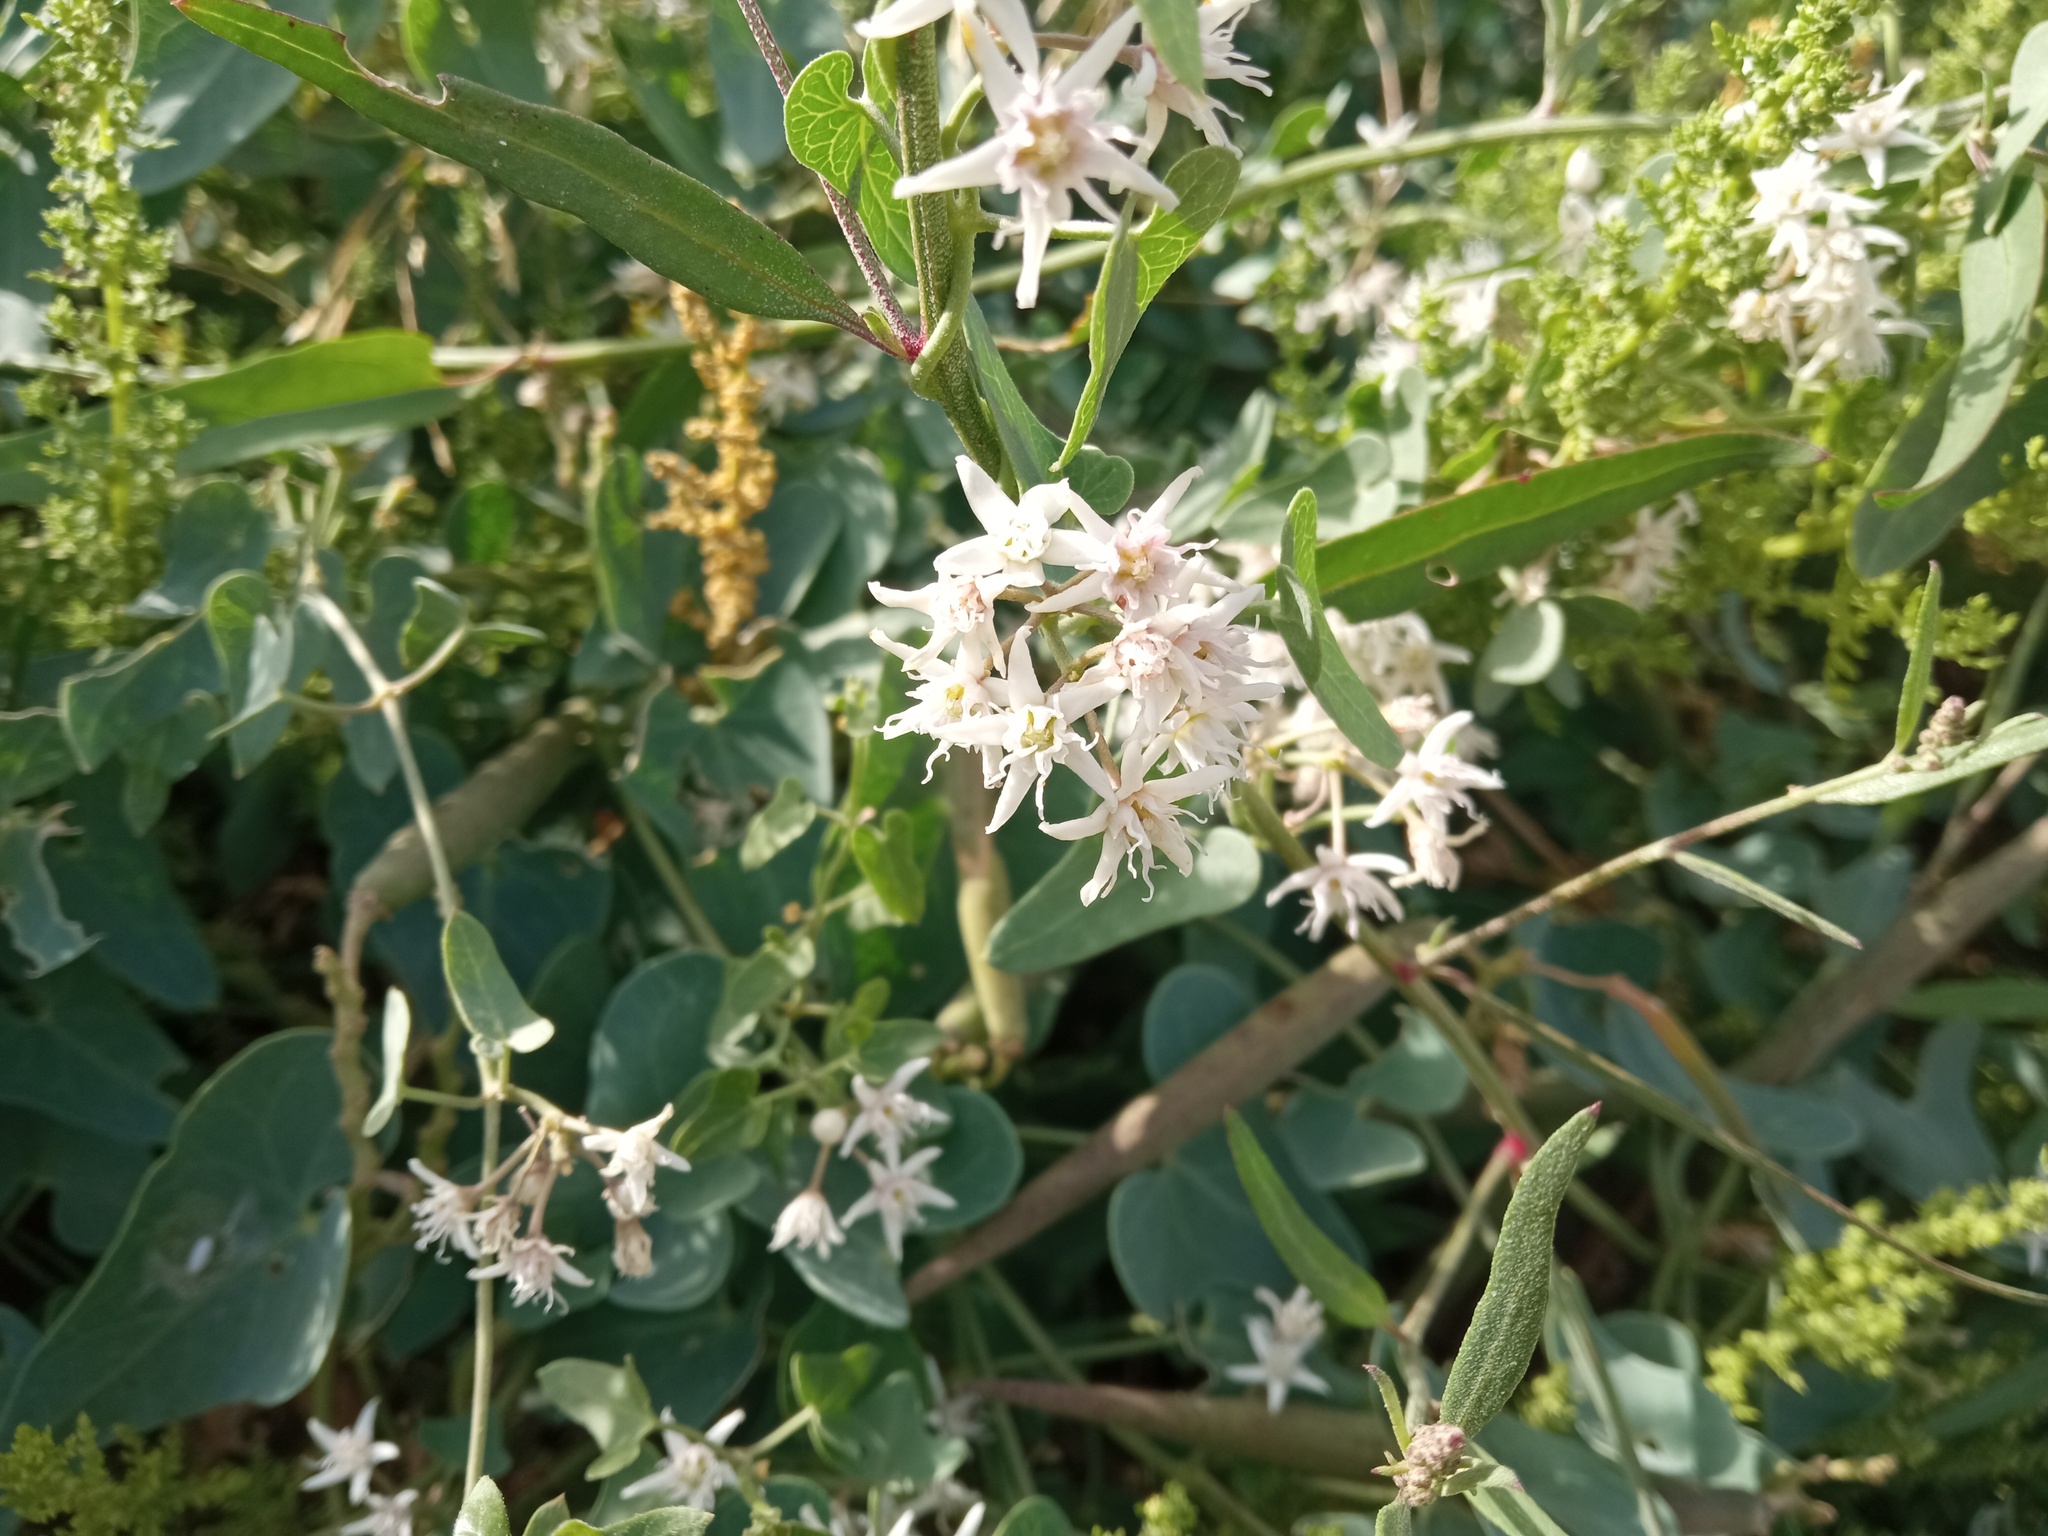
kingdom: Plantae
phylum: Tracheophyta
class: Magnoliopsida
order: Gentianales
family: Apocynaceae
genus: Cynanchum
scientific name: Cynanchum acutum
